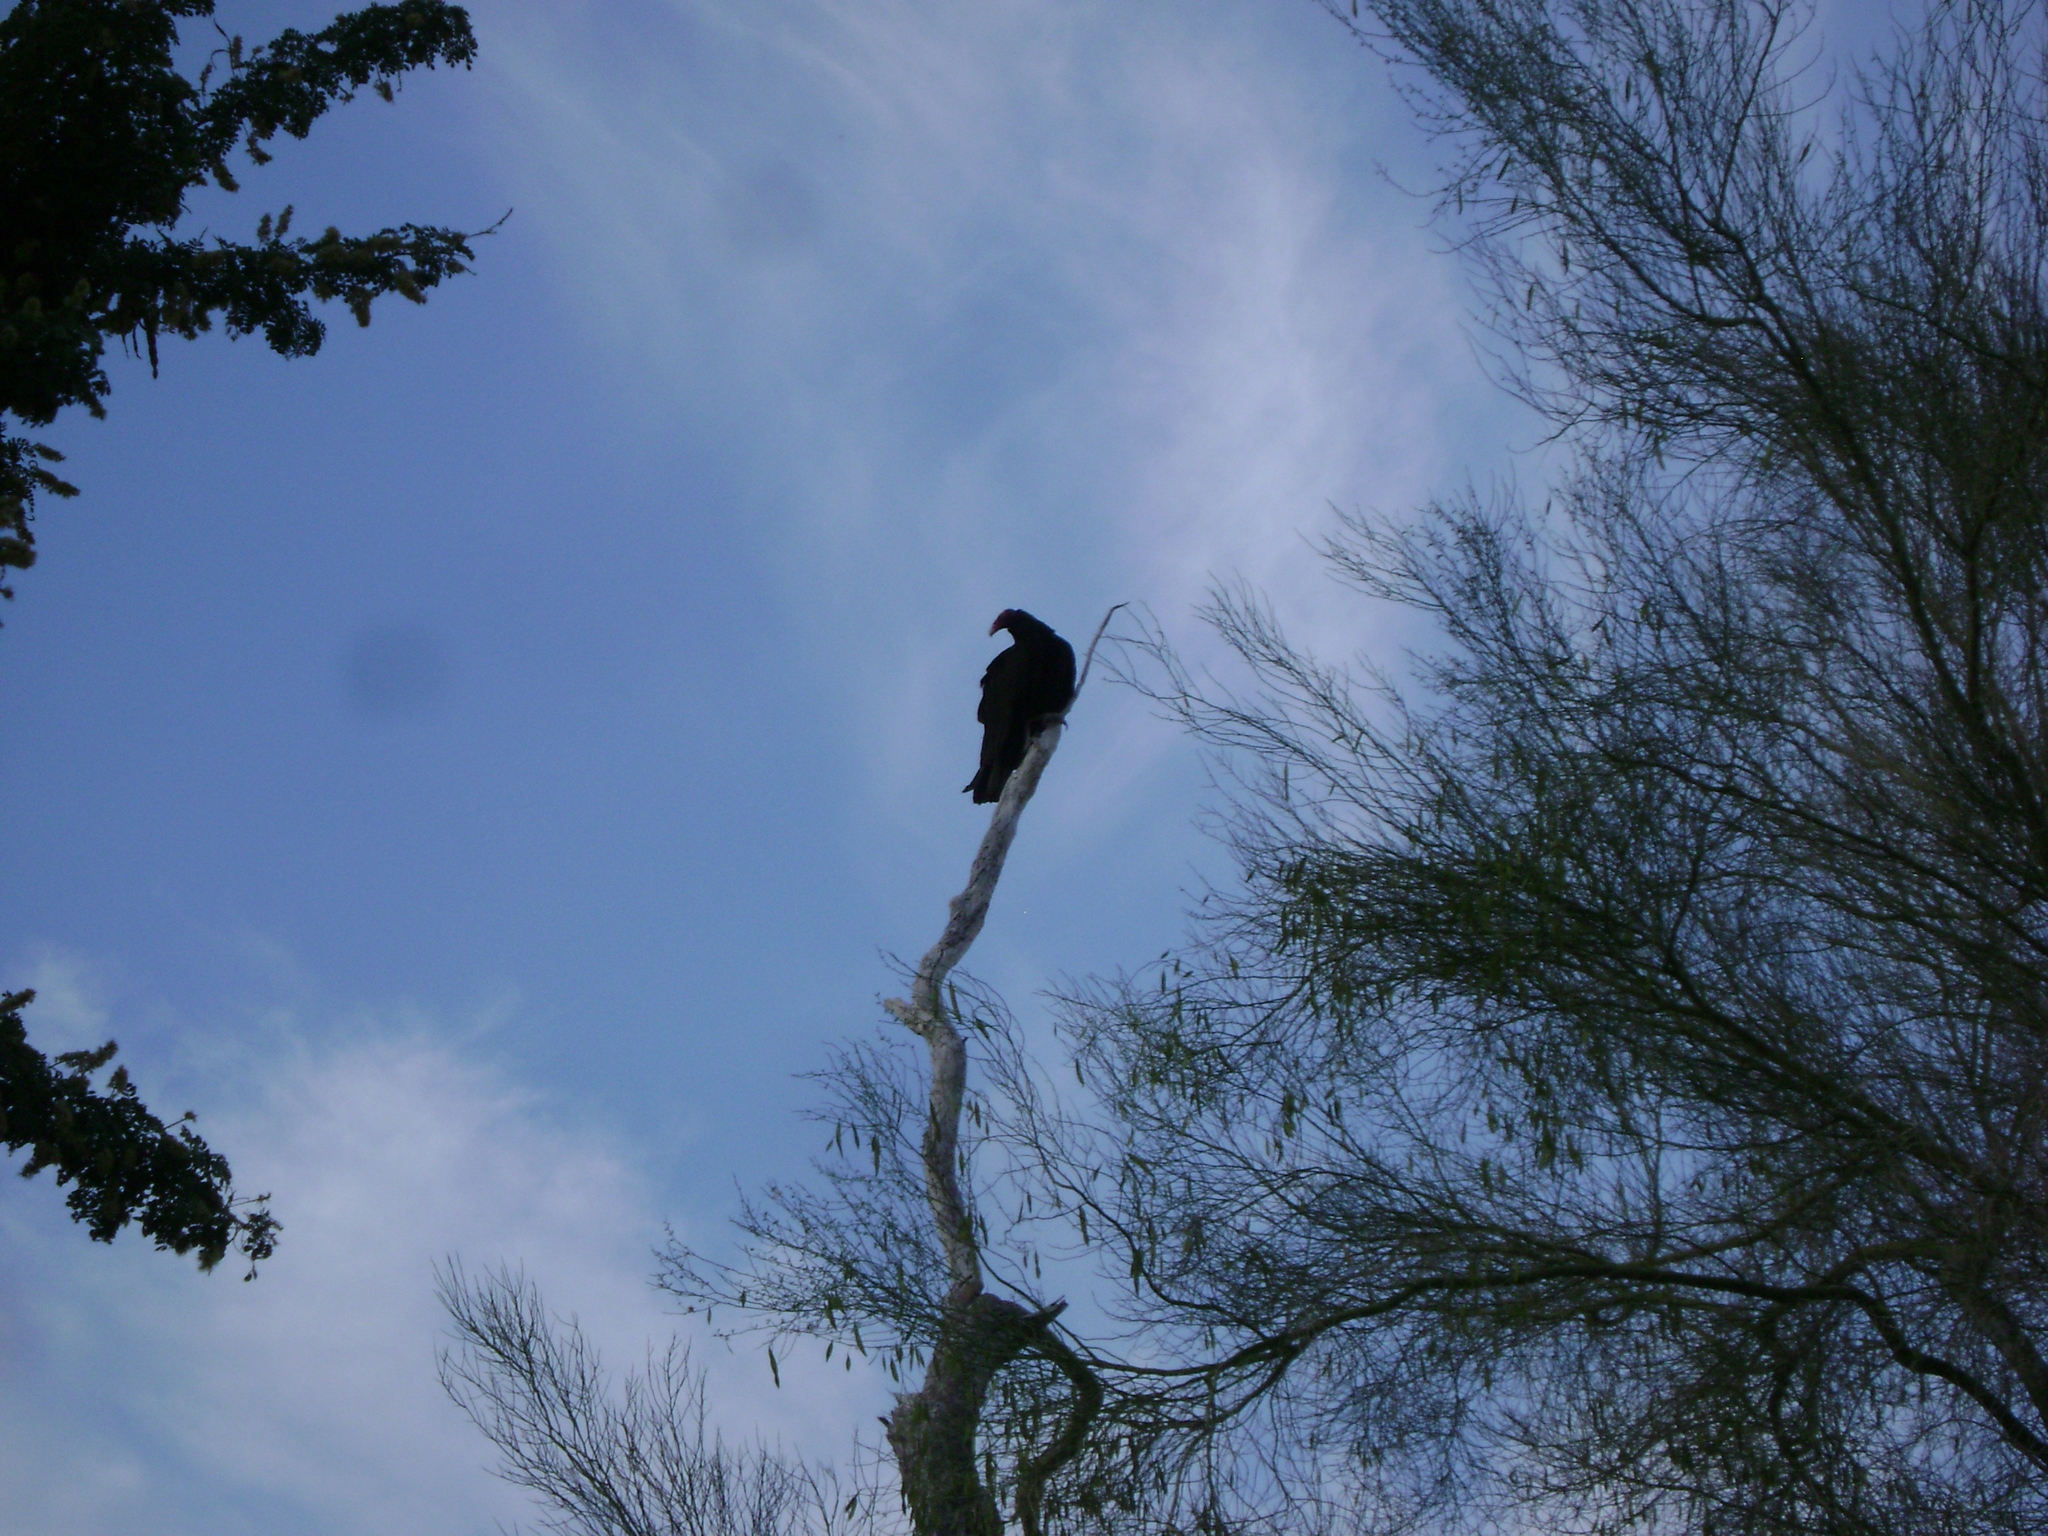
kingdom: Animalia
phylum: Chordata
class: Aves
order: Accipitriformes
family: Cathartidae
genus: Cathartes
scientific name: Cathartes aura
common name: Turkey vulture
